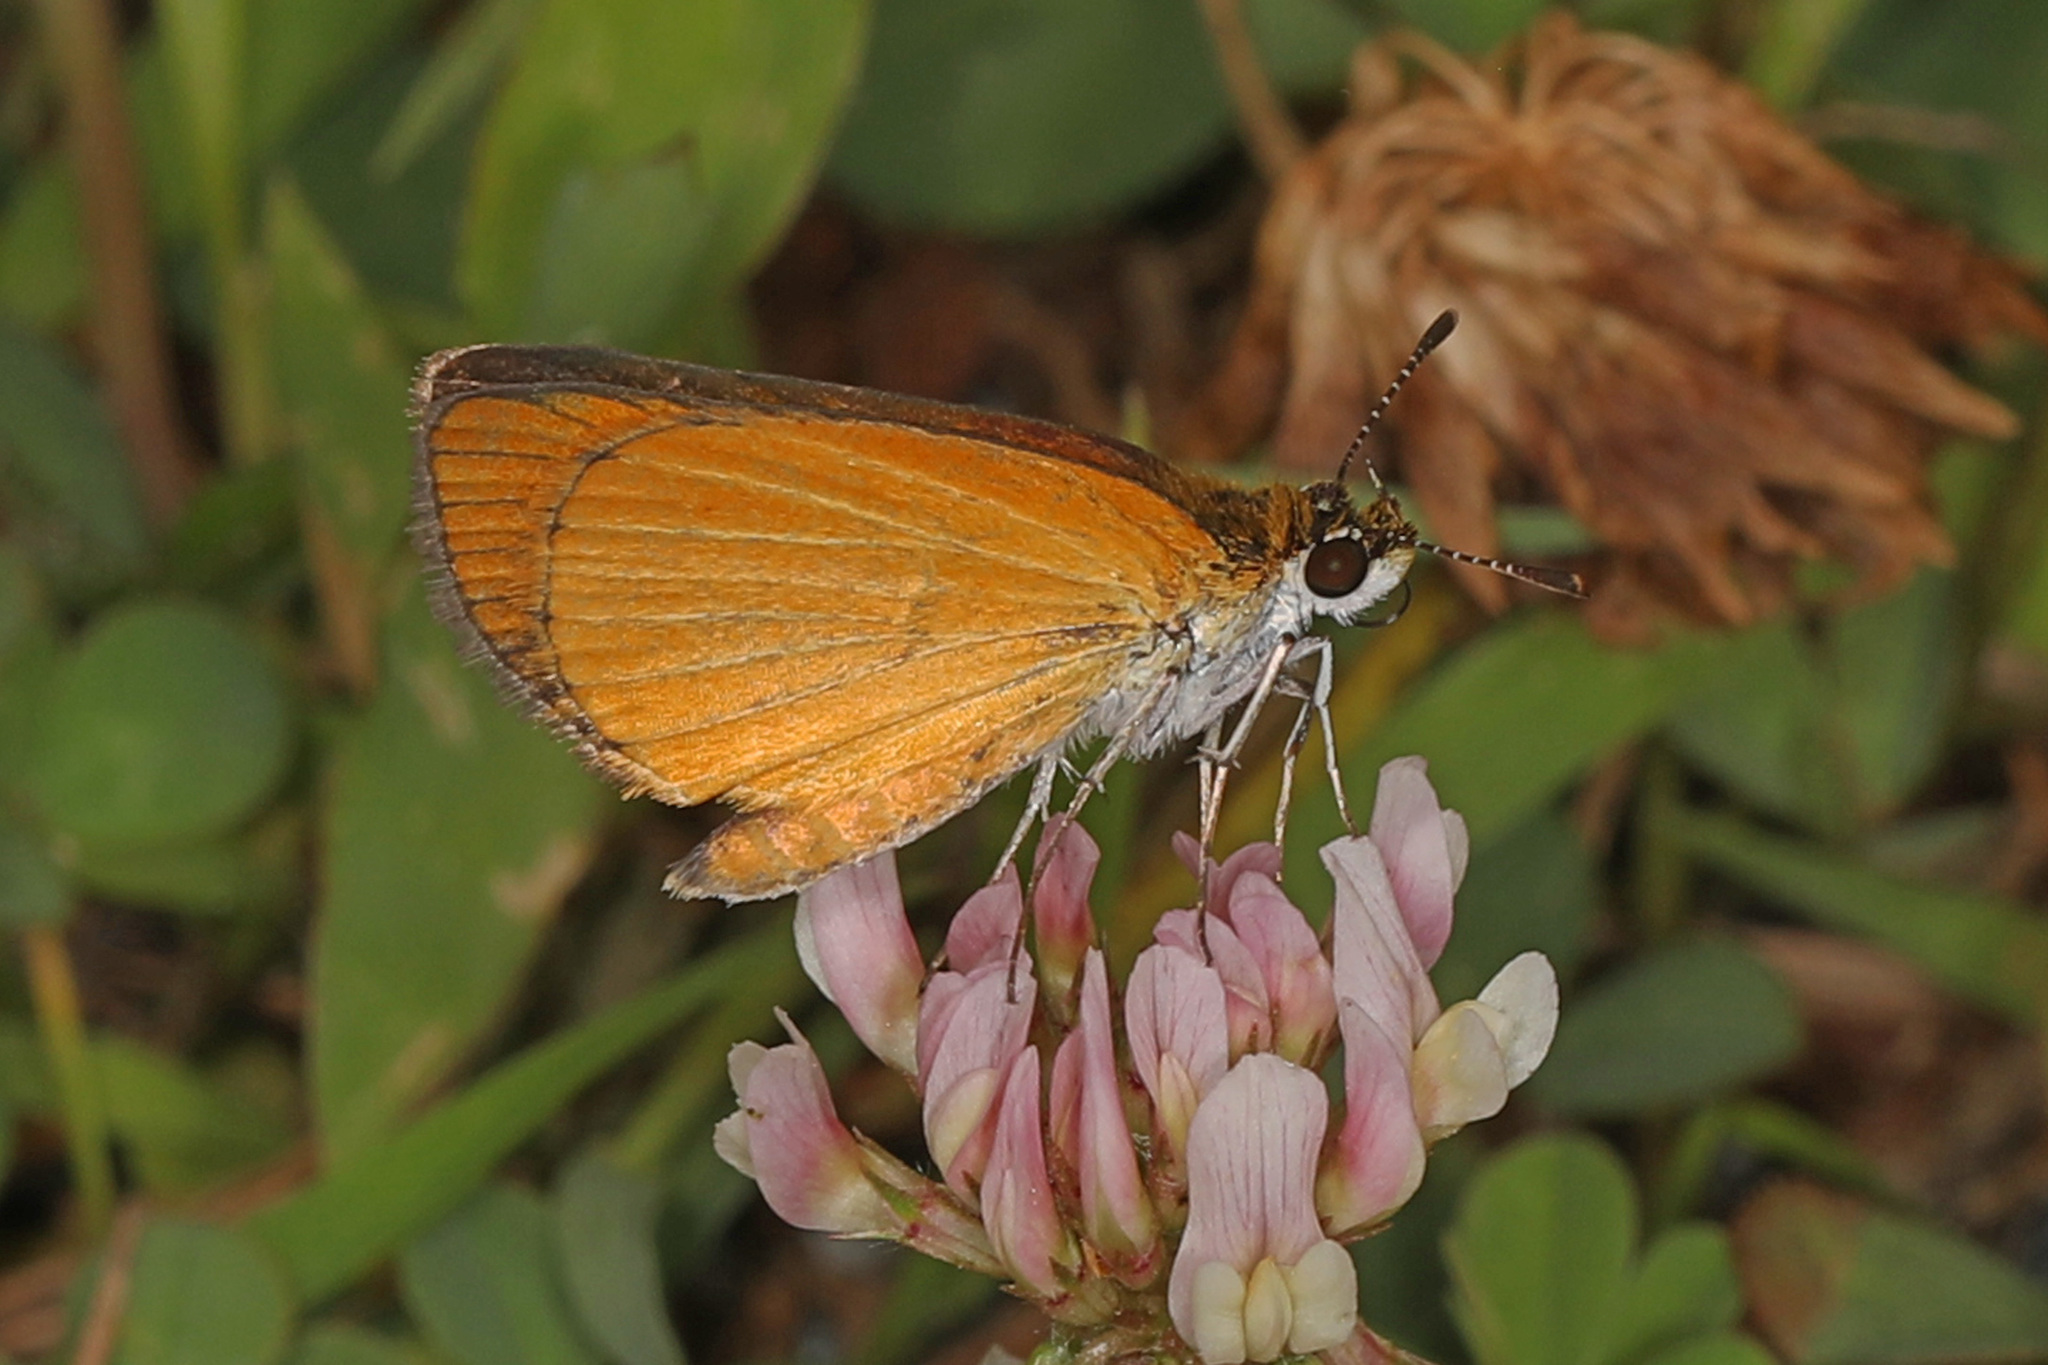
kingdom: Animalia
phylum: Arthropoda
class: Insecta
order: Lepidoptera
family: Hesperiidae
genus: Ancyloxypha
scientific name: Ancyloxypha numitor
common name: Least skipper
